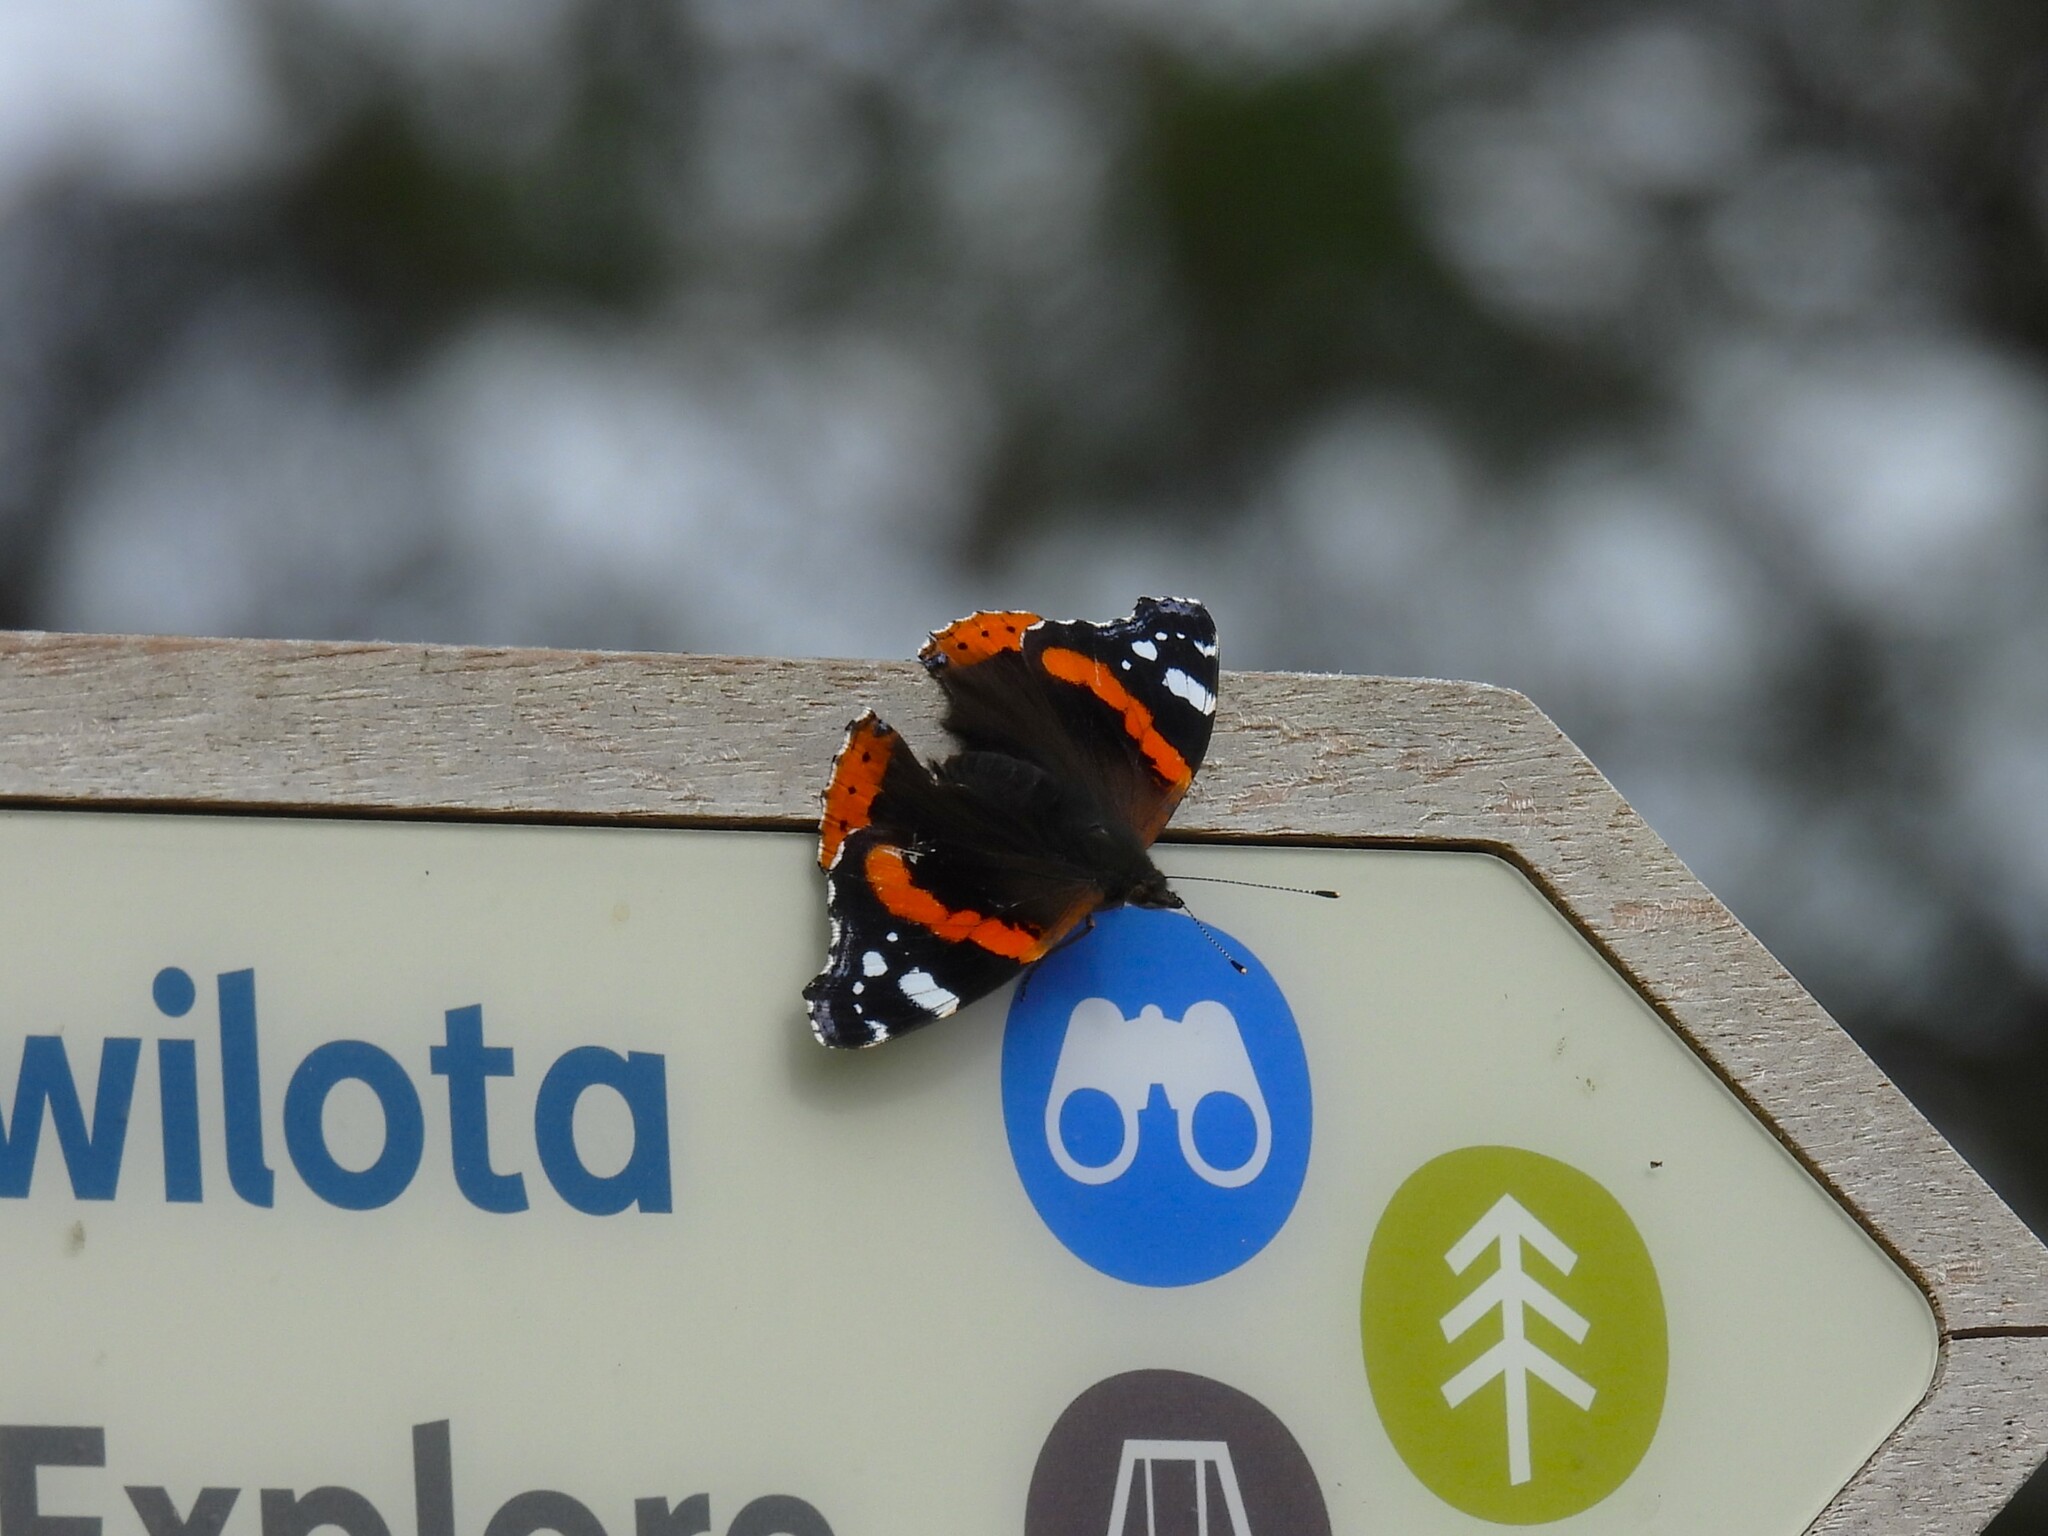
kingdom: Animalia
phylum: Arthropoda
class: Insecta
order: Lepidoptera
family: Nymphalidae
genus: Vanessa
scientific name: Vanessa atalanta
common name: Red admiral
